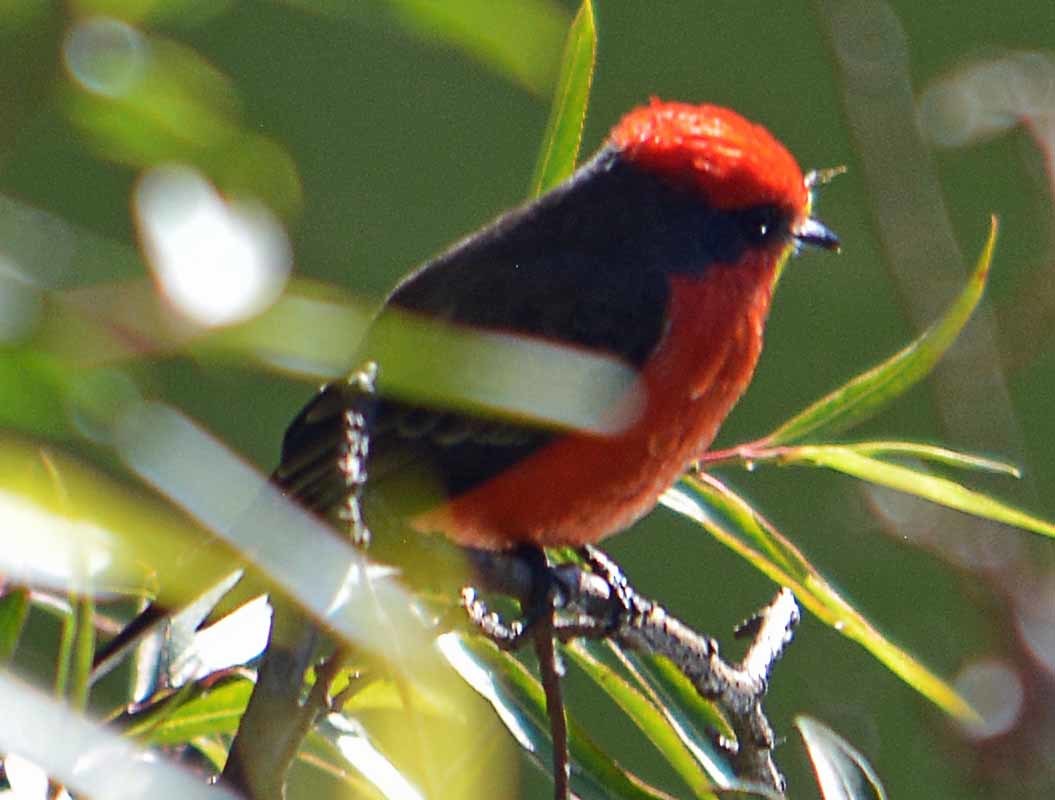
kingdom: Animalia
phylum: Chordata
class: Aves
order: Passeriformes
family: Tyrannidae
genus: Pyrocephalus
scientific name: Pyrocephalus rubinus
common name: Vermilion flycatcher
